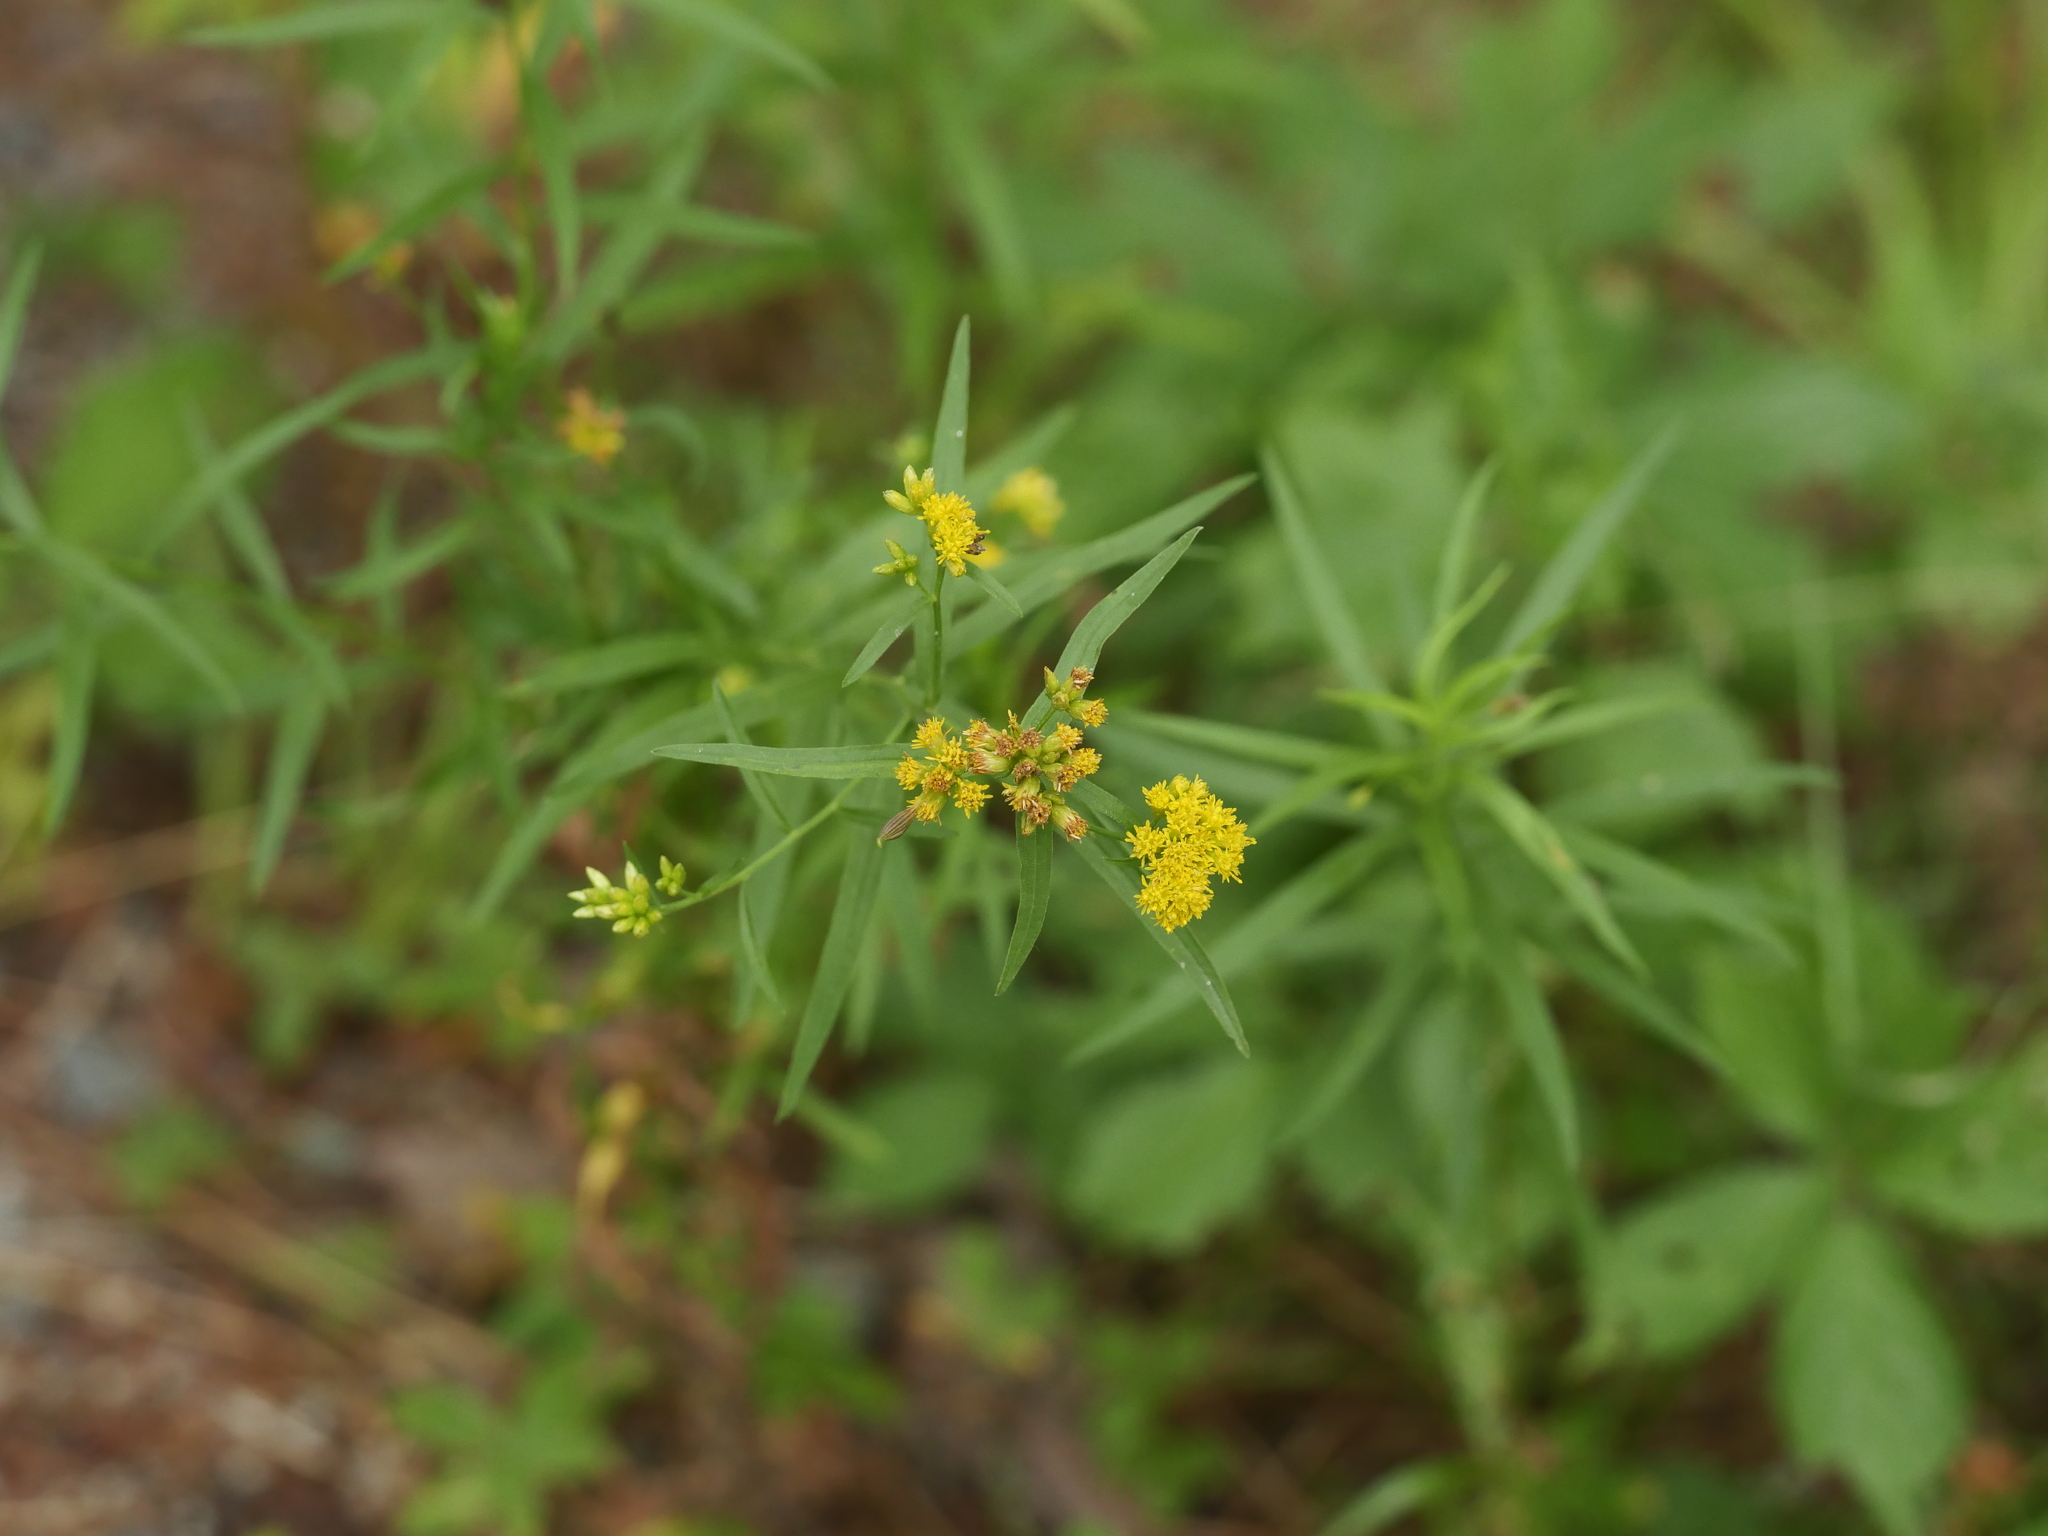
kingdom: Plantae
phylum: Tracheophyta
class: Magnoliopsida
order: Asterales
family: Asteraceae
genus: Euthamia
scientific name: Euthamia graminifolia
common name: Common goldentop
